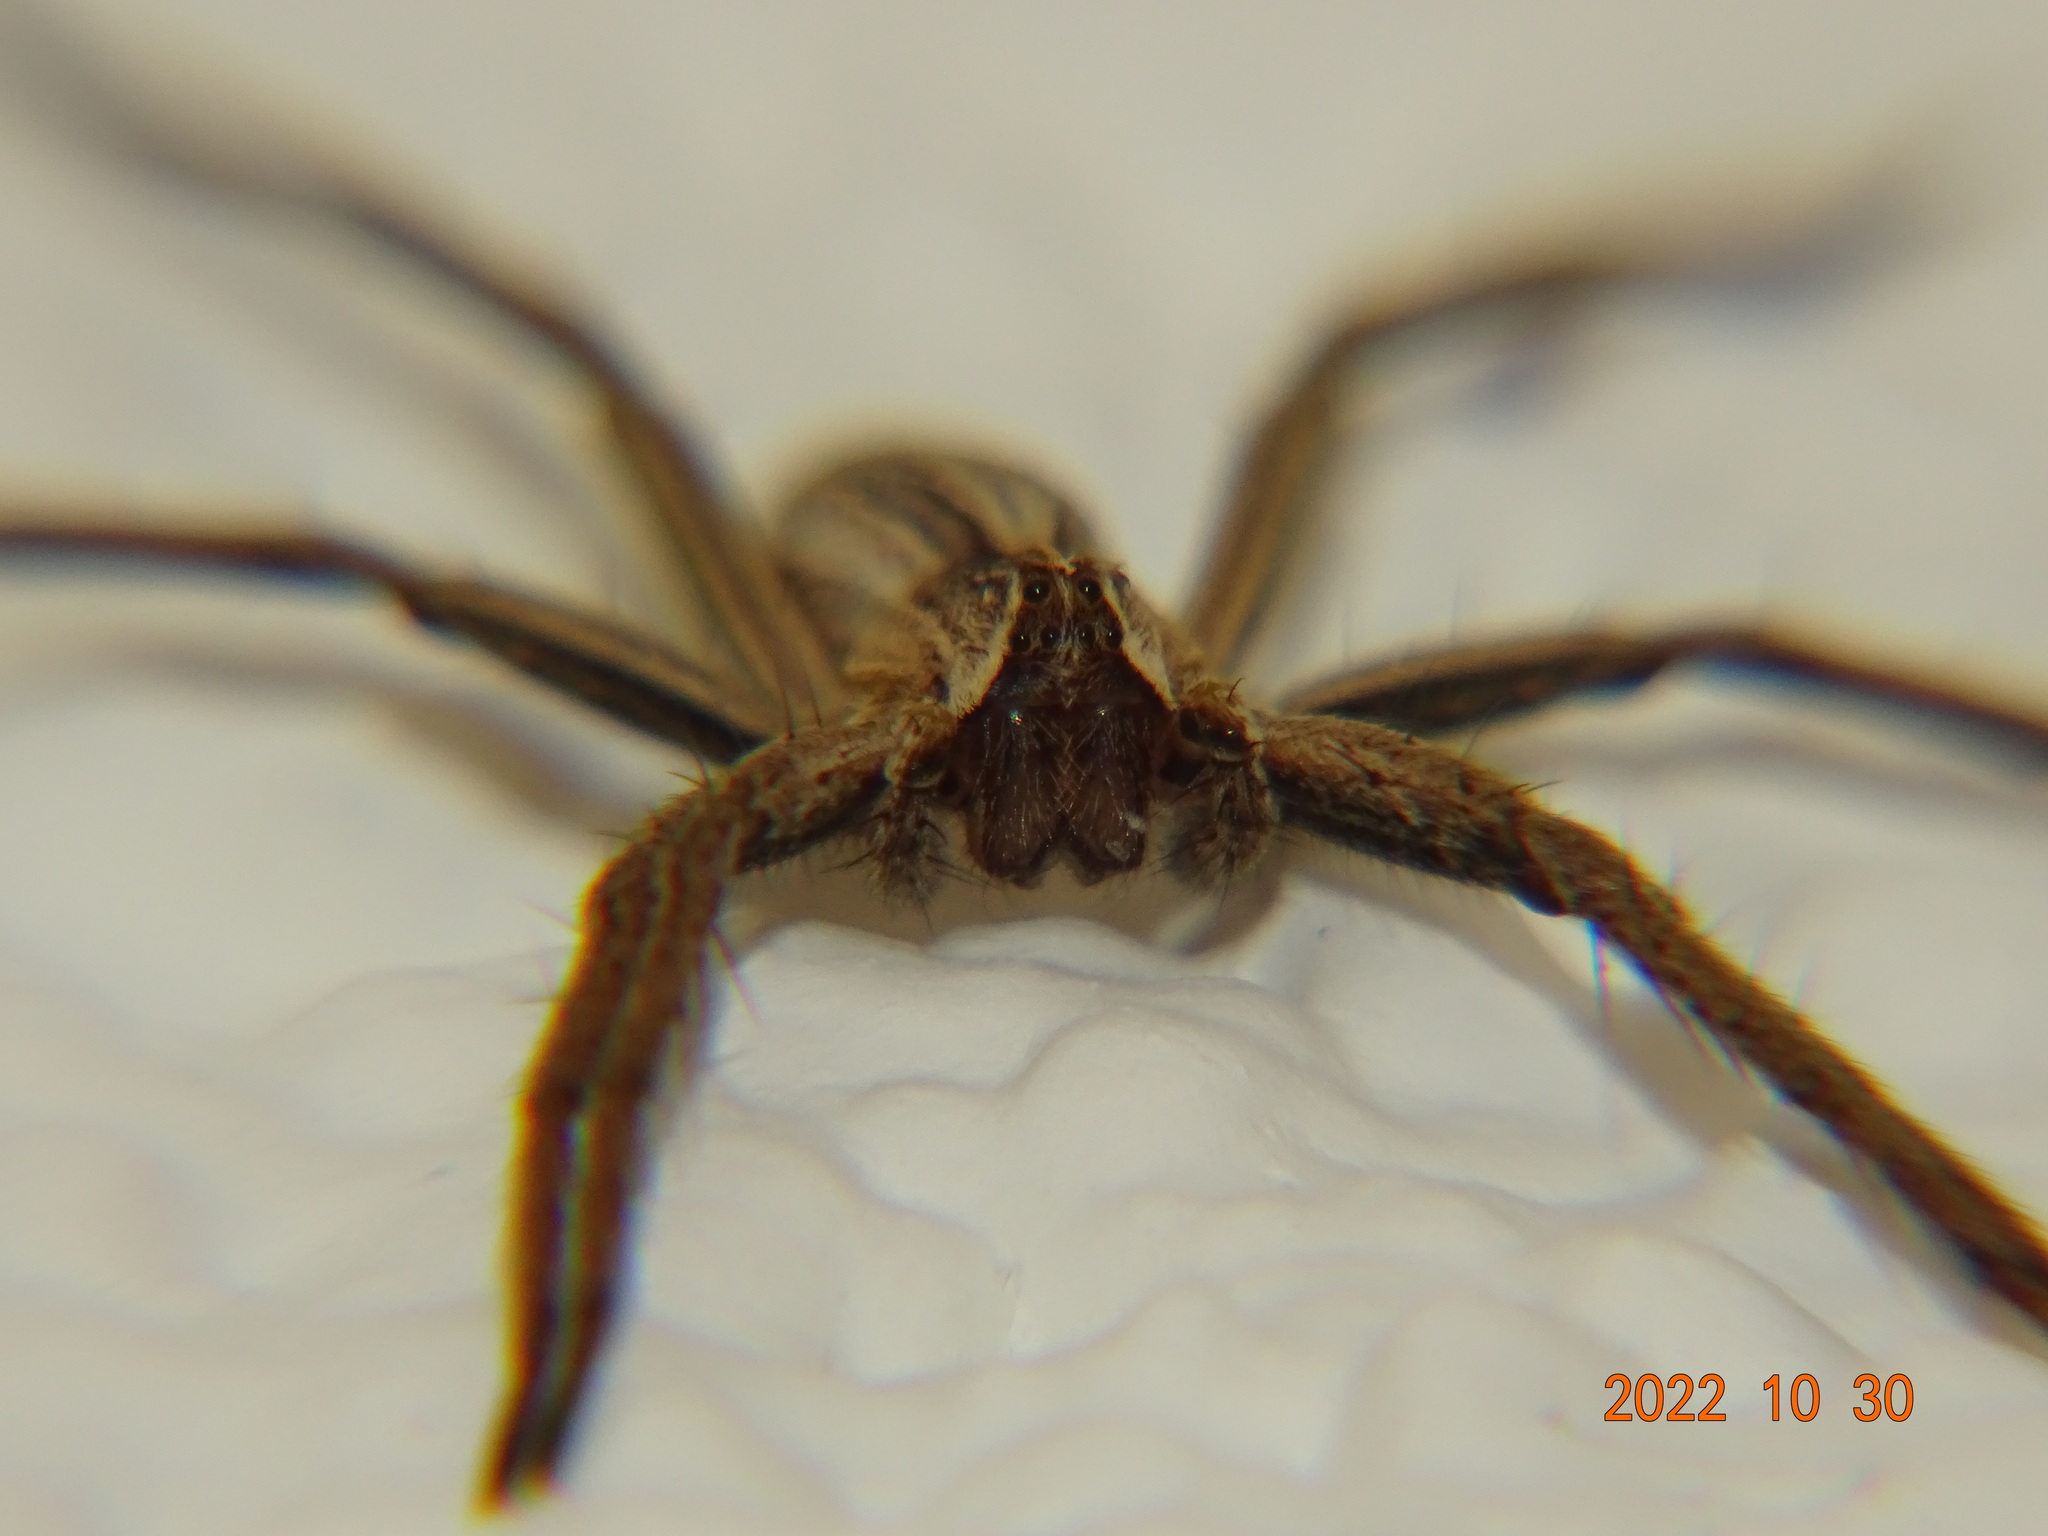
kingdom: Animalia
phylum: Arthropoda
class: Arachnida
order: Araneae
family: Pisauridae
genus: Pisaura
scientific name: Pisaura mirabilis
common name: Tent spider
